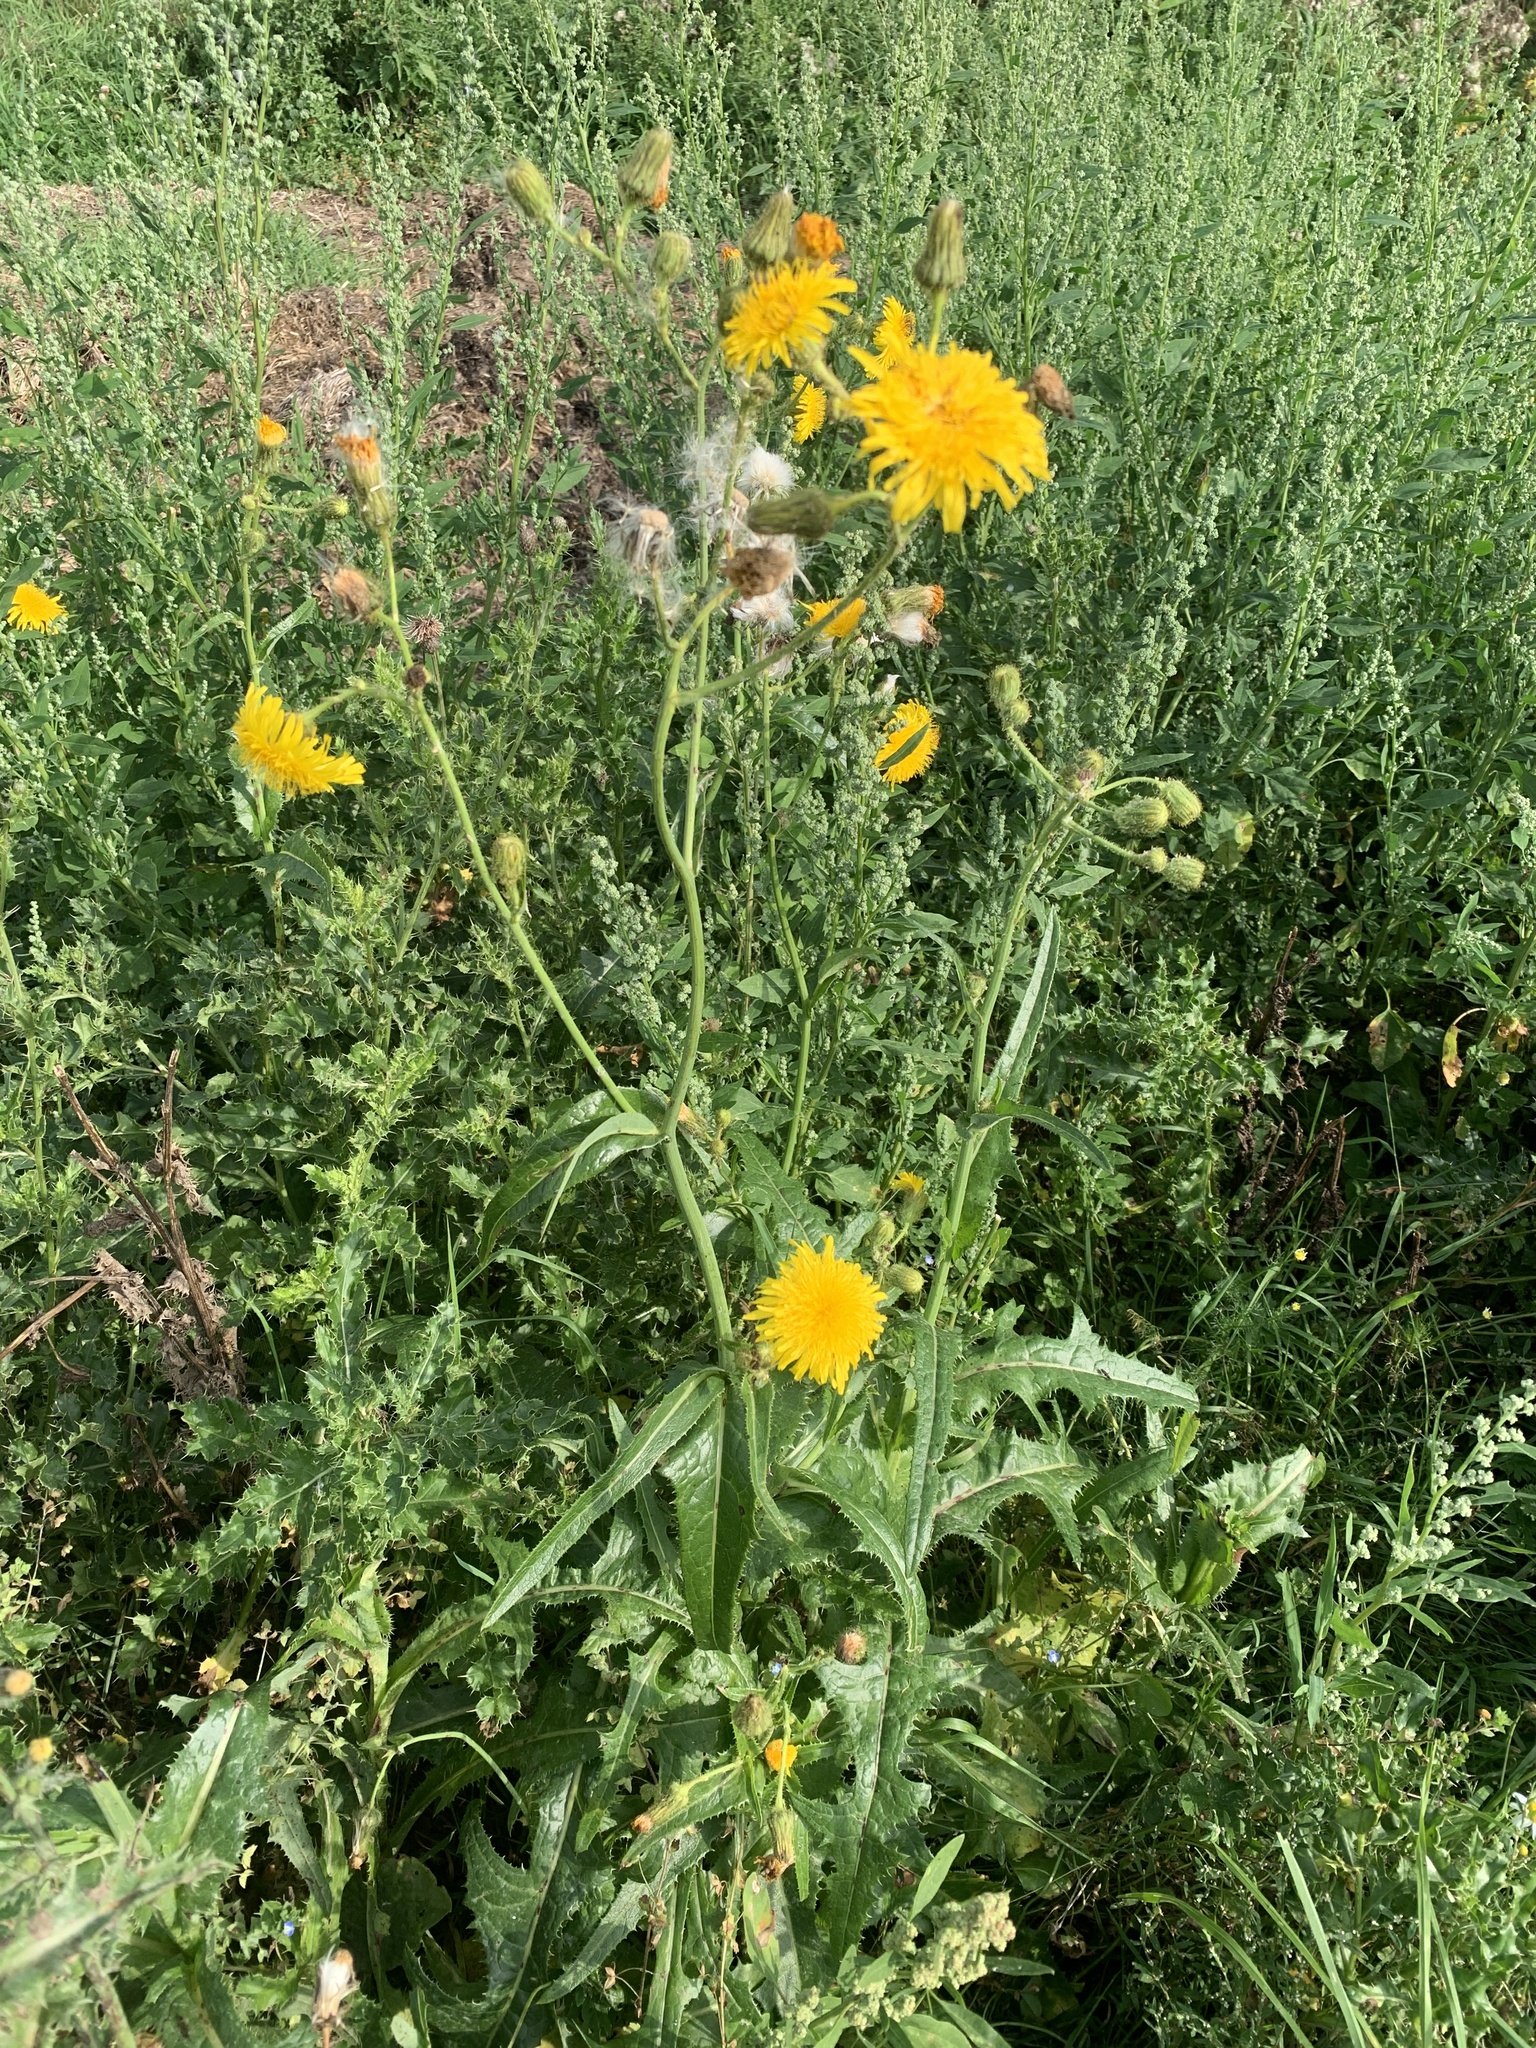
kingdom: Plantae
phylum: Tracheophyta
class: Magnoliopsida
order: Asterales
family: Asteraceae
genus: Sonchus
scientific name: Sonchus arvensis
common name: Perennial sow-thistle
